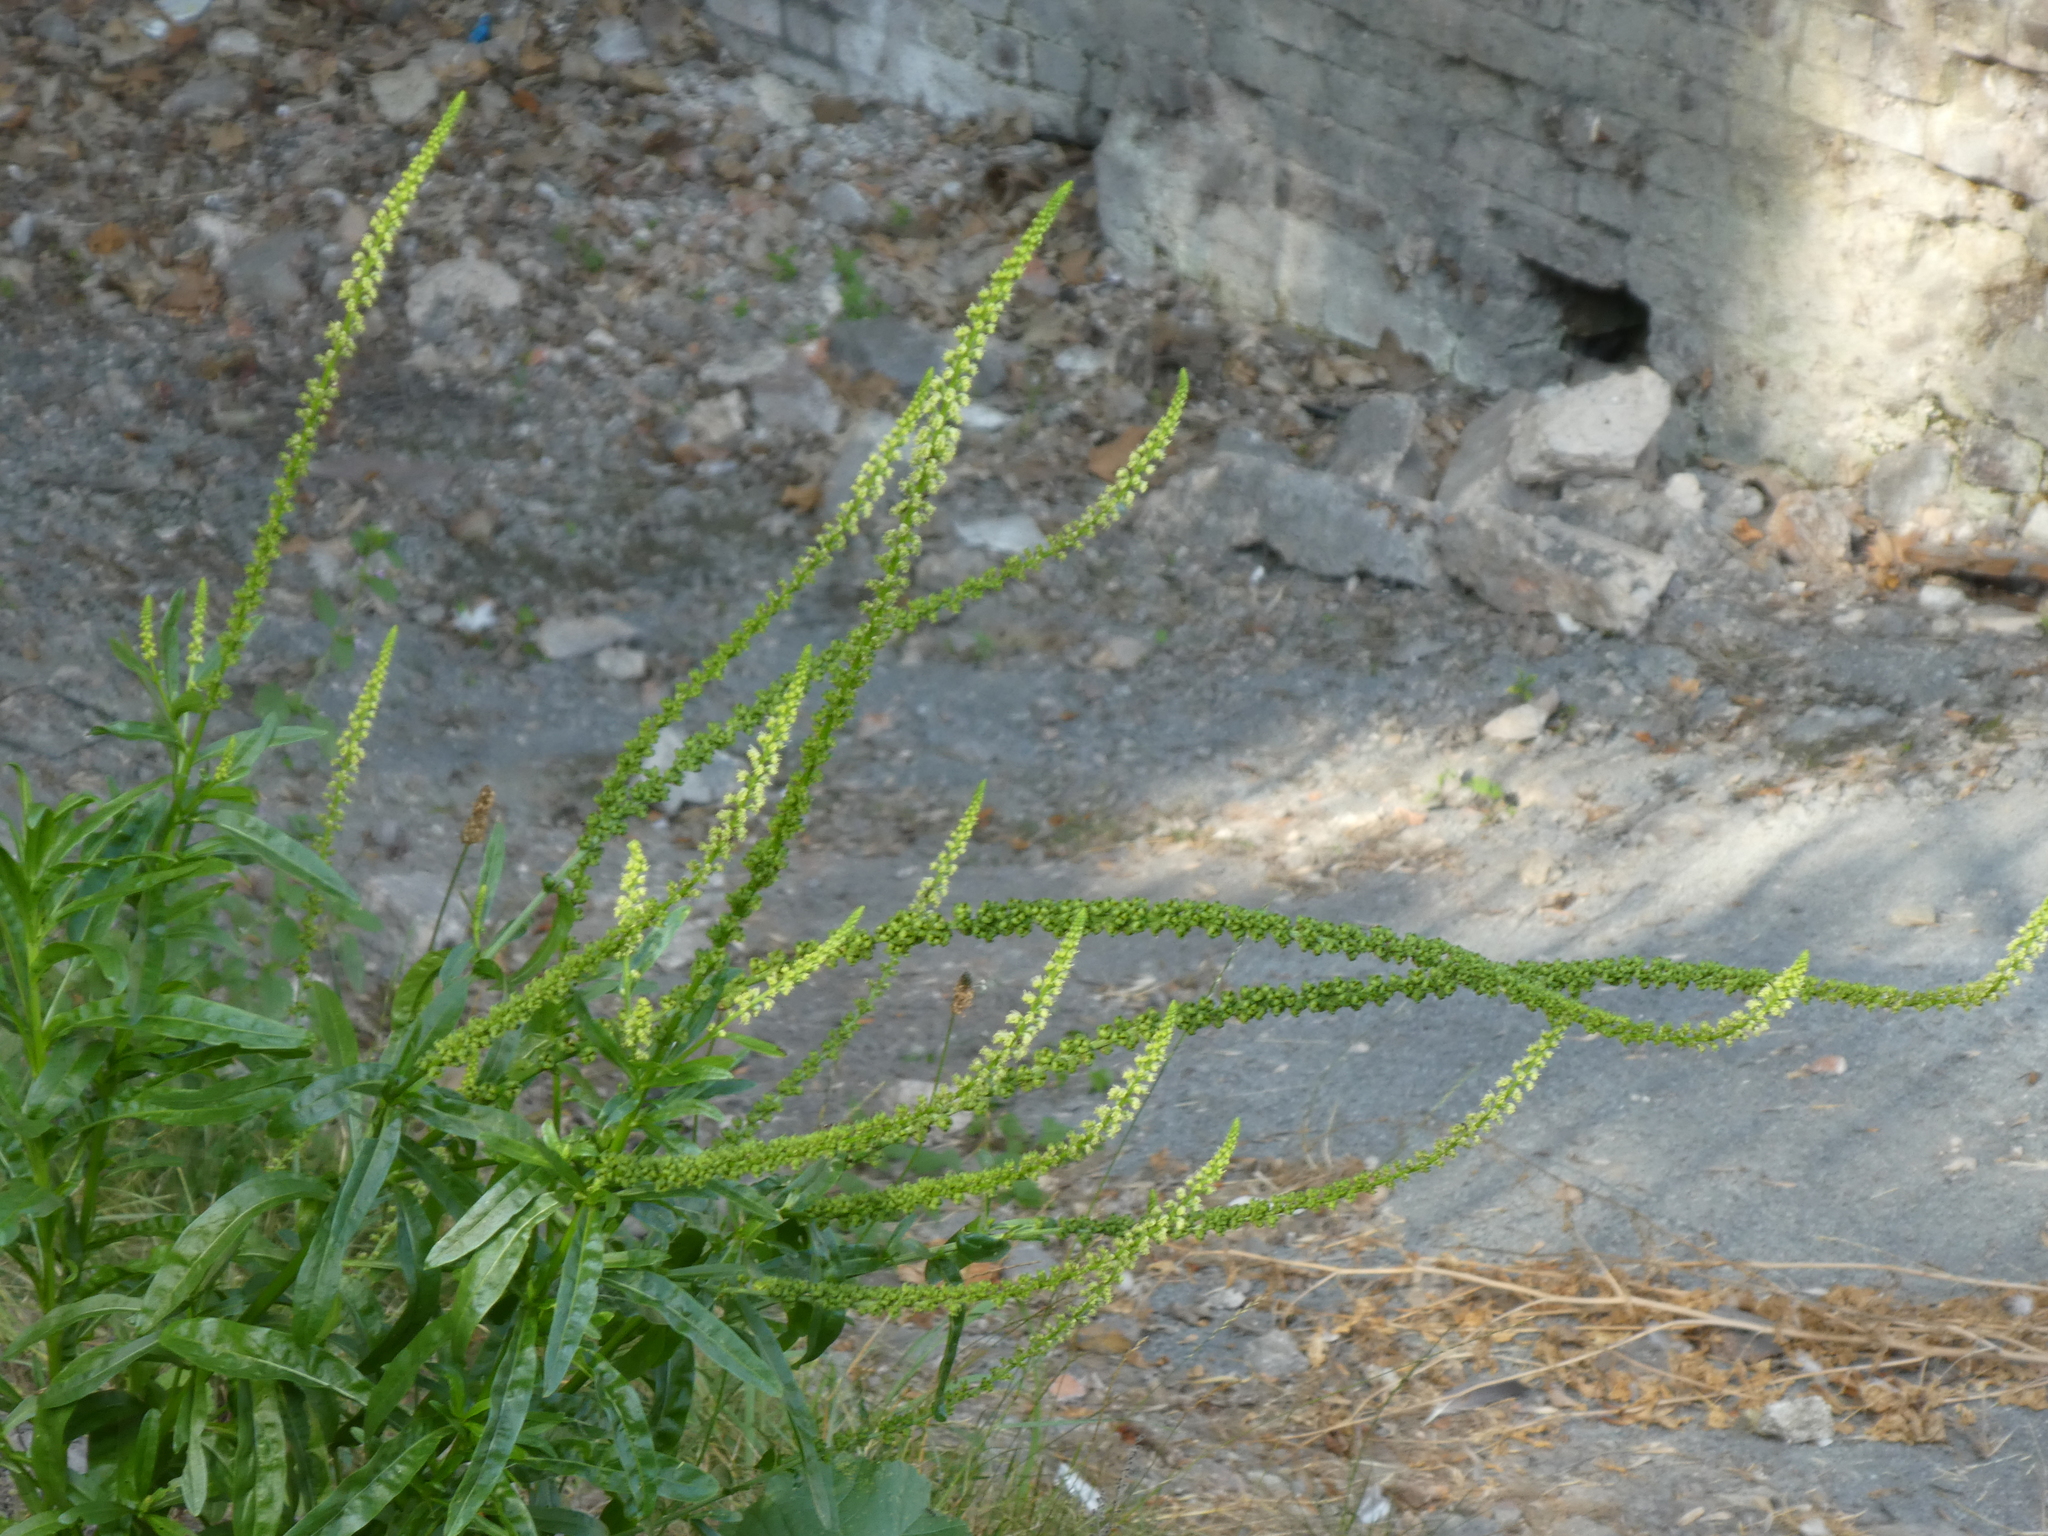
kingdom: Plantae
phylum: Tracheophyta
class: Magnoliopsida
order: Brassicales
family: Resedaceae
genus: Reseda
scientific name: Reseda luteola
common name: Weld
